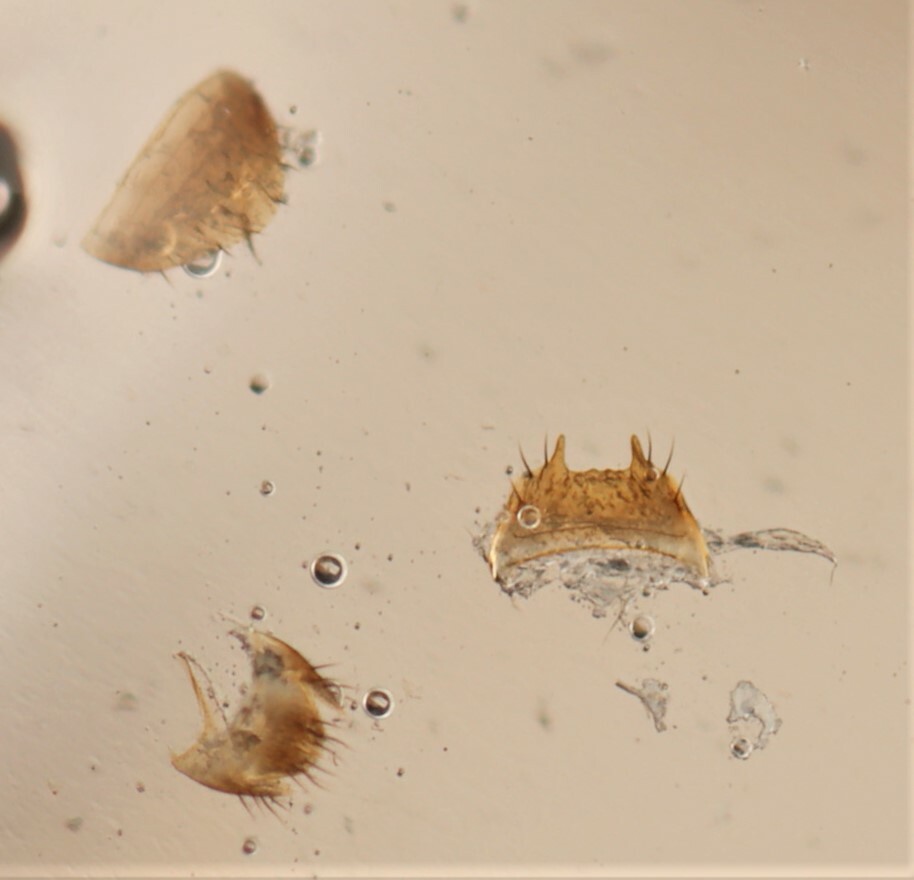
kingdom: Animalia
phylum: Arthropoda
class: Insecta
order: Coleoptera
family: Staphylinidae
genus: Gyrophaena
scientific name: Gyrophaena illiana
